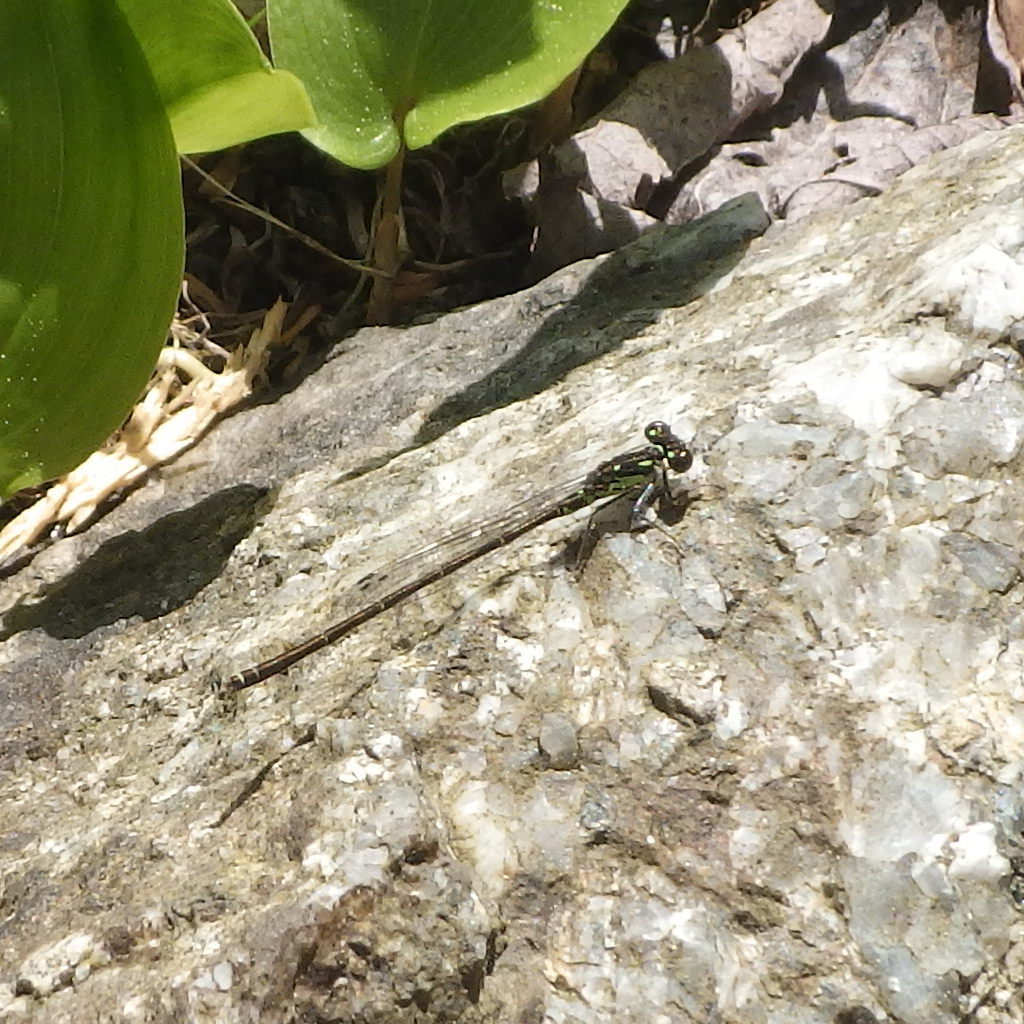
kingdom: Animalia
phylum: Arthropoda
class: Insecta
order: Odonata
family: Coenagrionidae
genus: Ischnura
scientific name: Ischnura posita
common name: Fragile forktail
